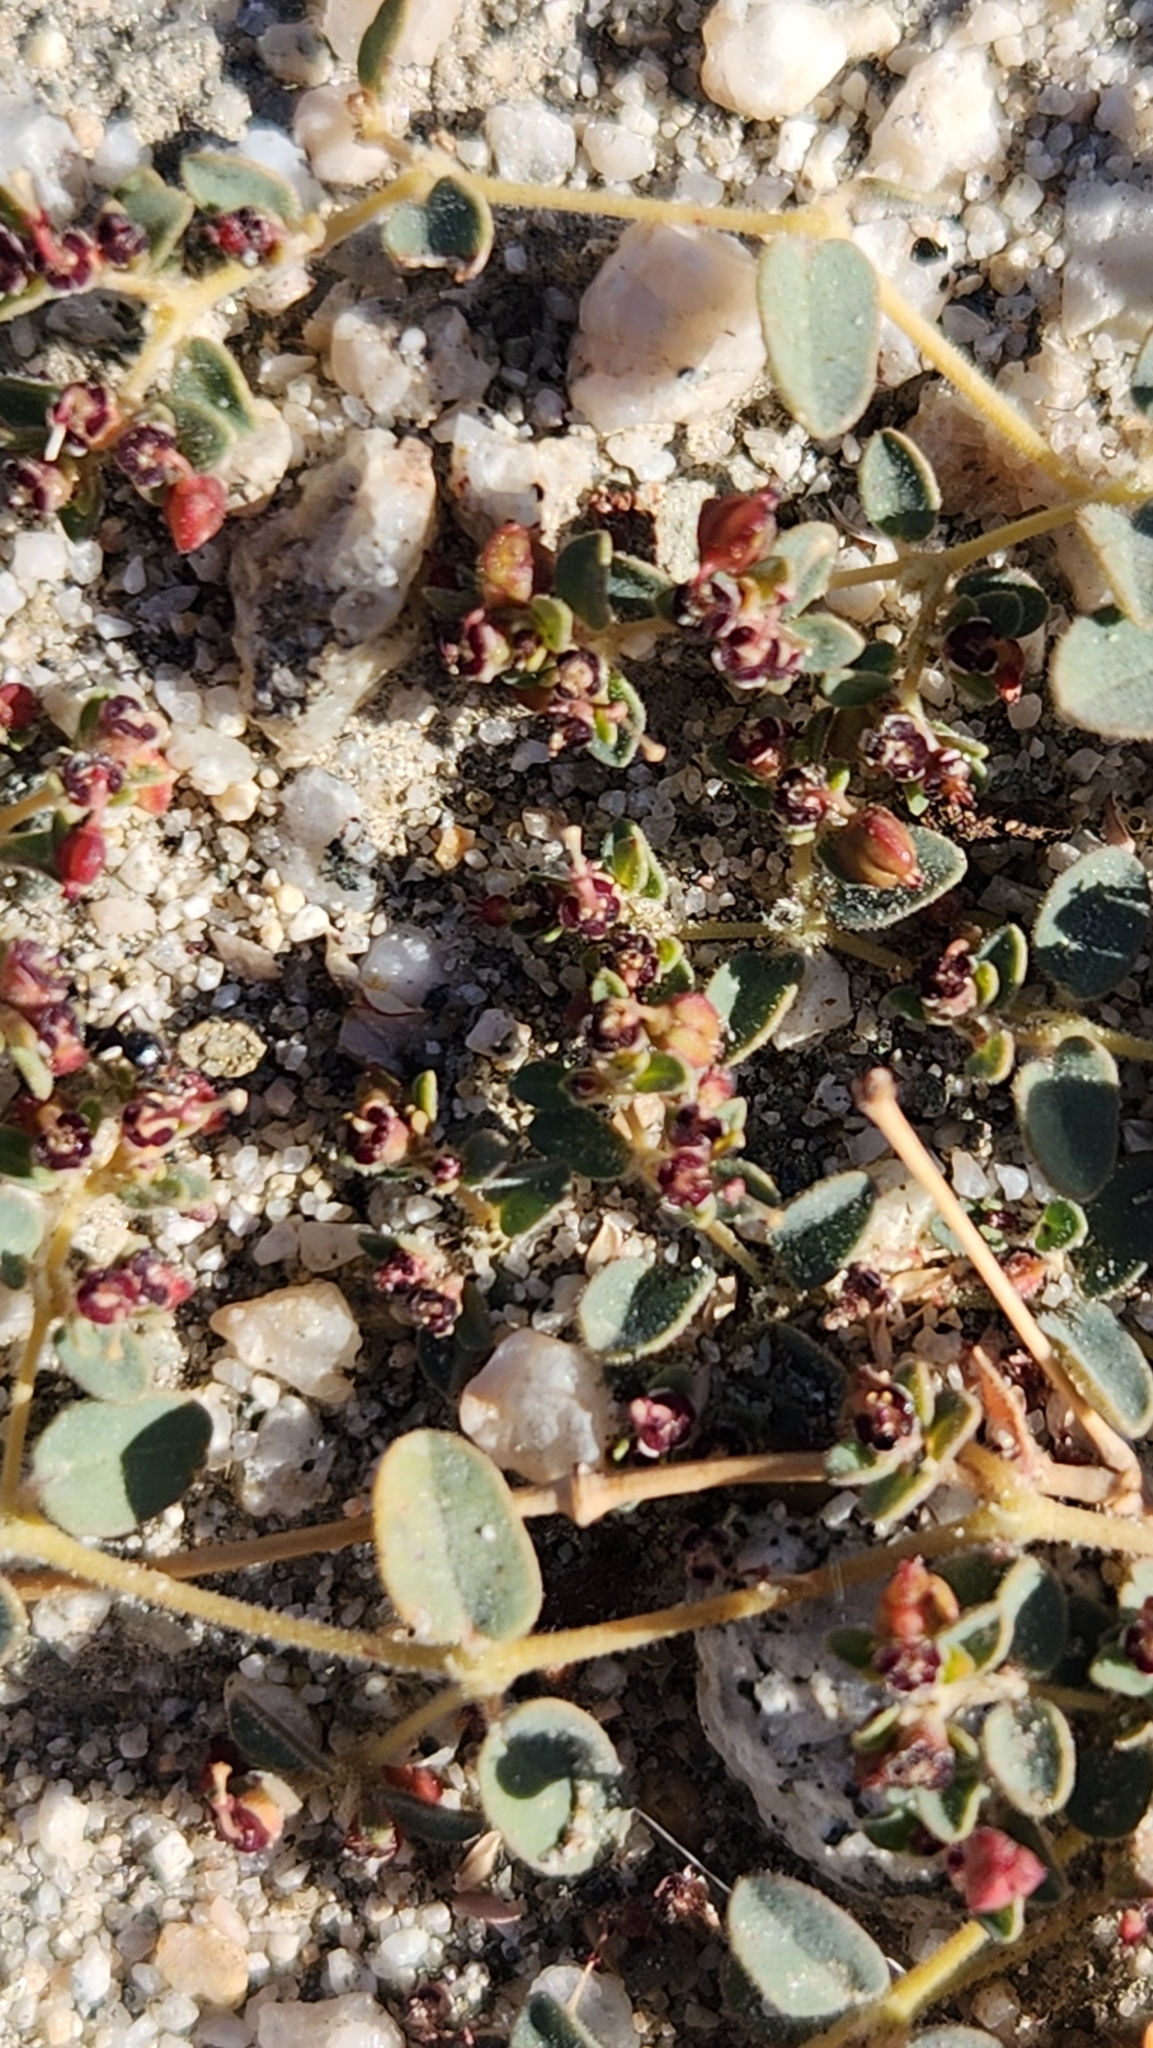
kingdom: Plantae
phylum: Tracheophyta
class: Magnoliopsida
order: Malpighiales
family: Euphorbiaceae
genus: Euphorbia
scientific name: Euphorbia polycarpa
